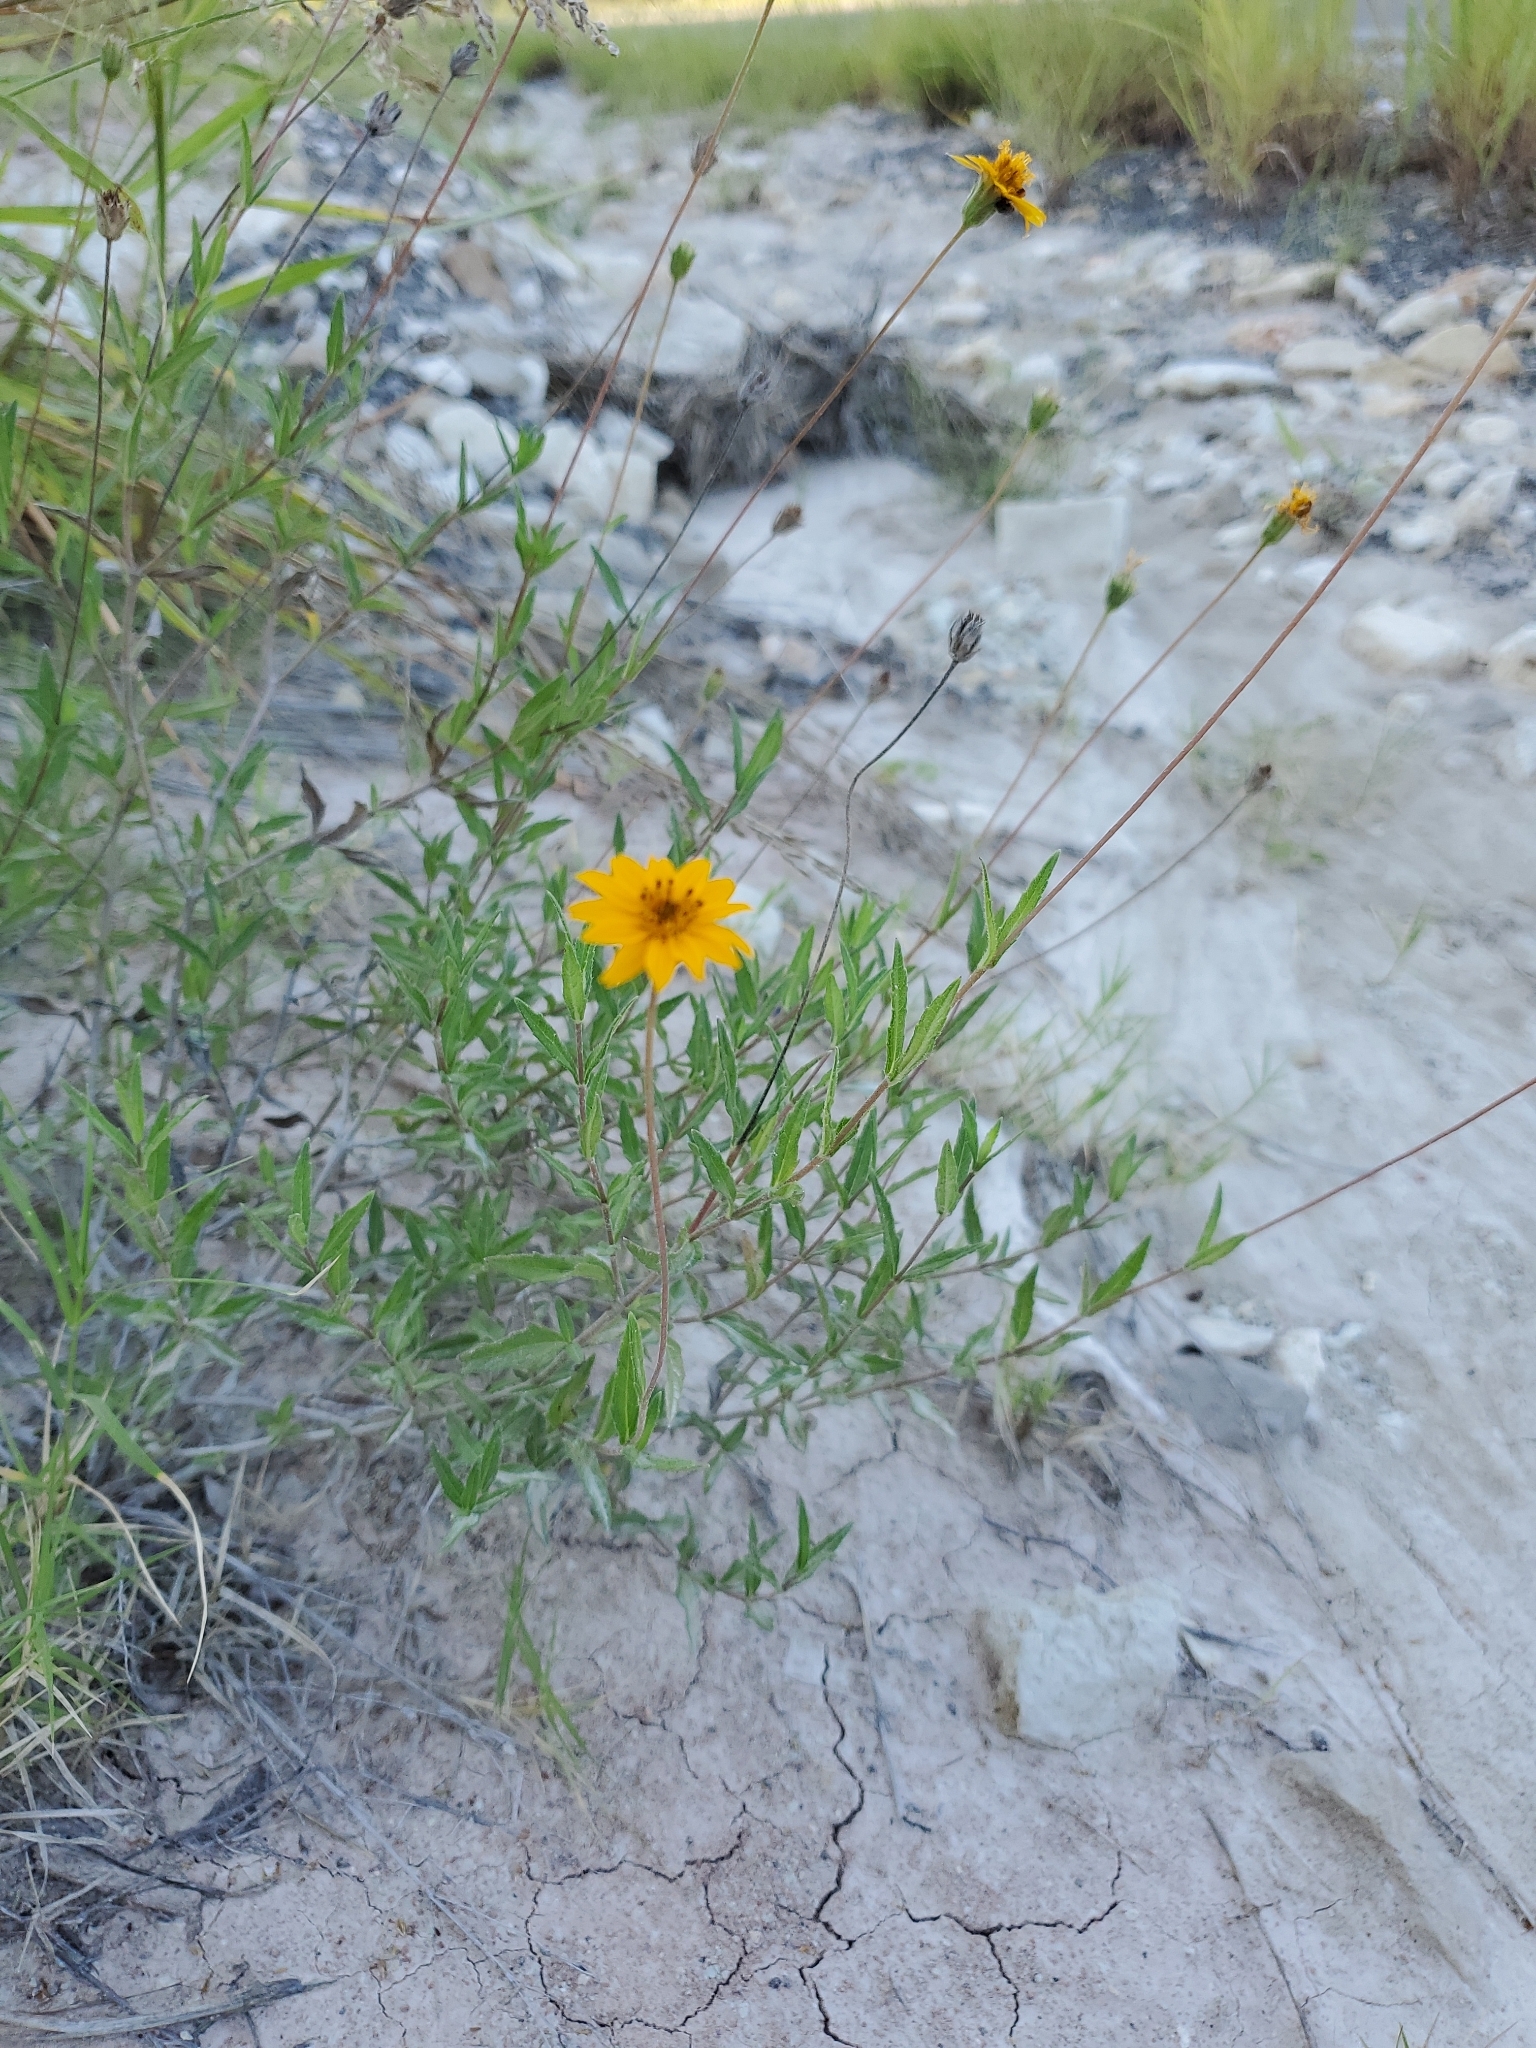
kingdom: Plantae
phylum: Tracheophyta
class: Magnoliopsida
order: Asterales
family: Asteraceae
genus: Wedelia
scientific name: Wedelia acapulcensis
